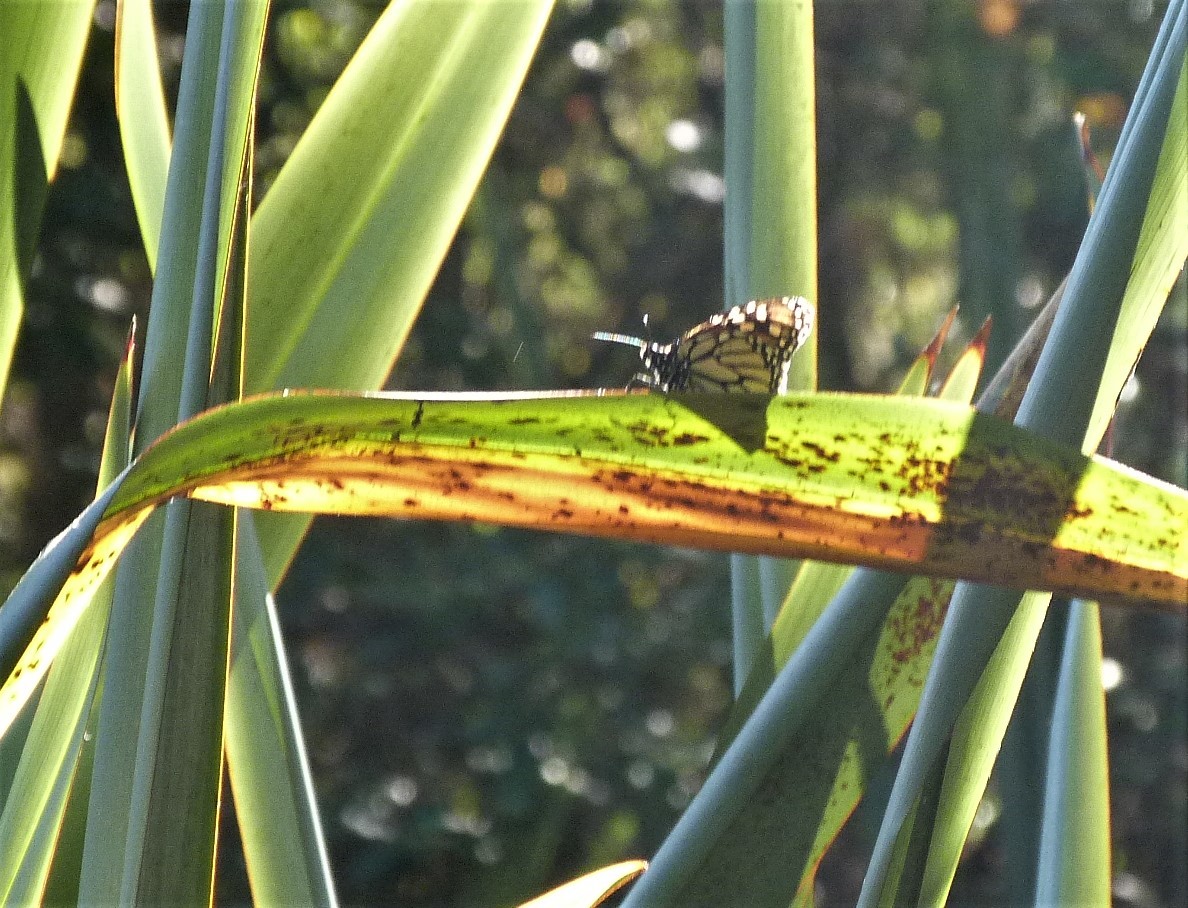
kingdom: Animalia
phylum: Arthropoda
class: Insecta
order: Lepidoptera
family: Nymphalidae
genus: Danaus
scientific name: Danaus plexippus
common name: Monarch
